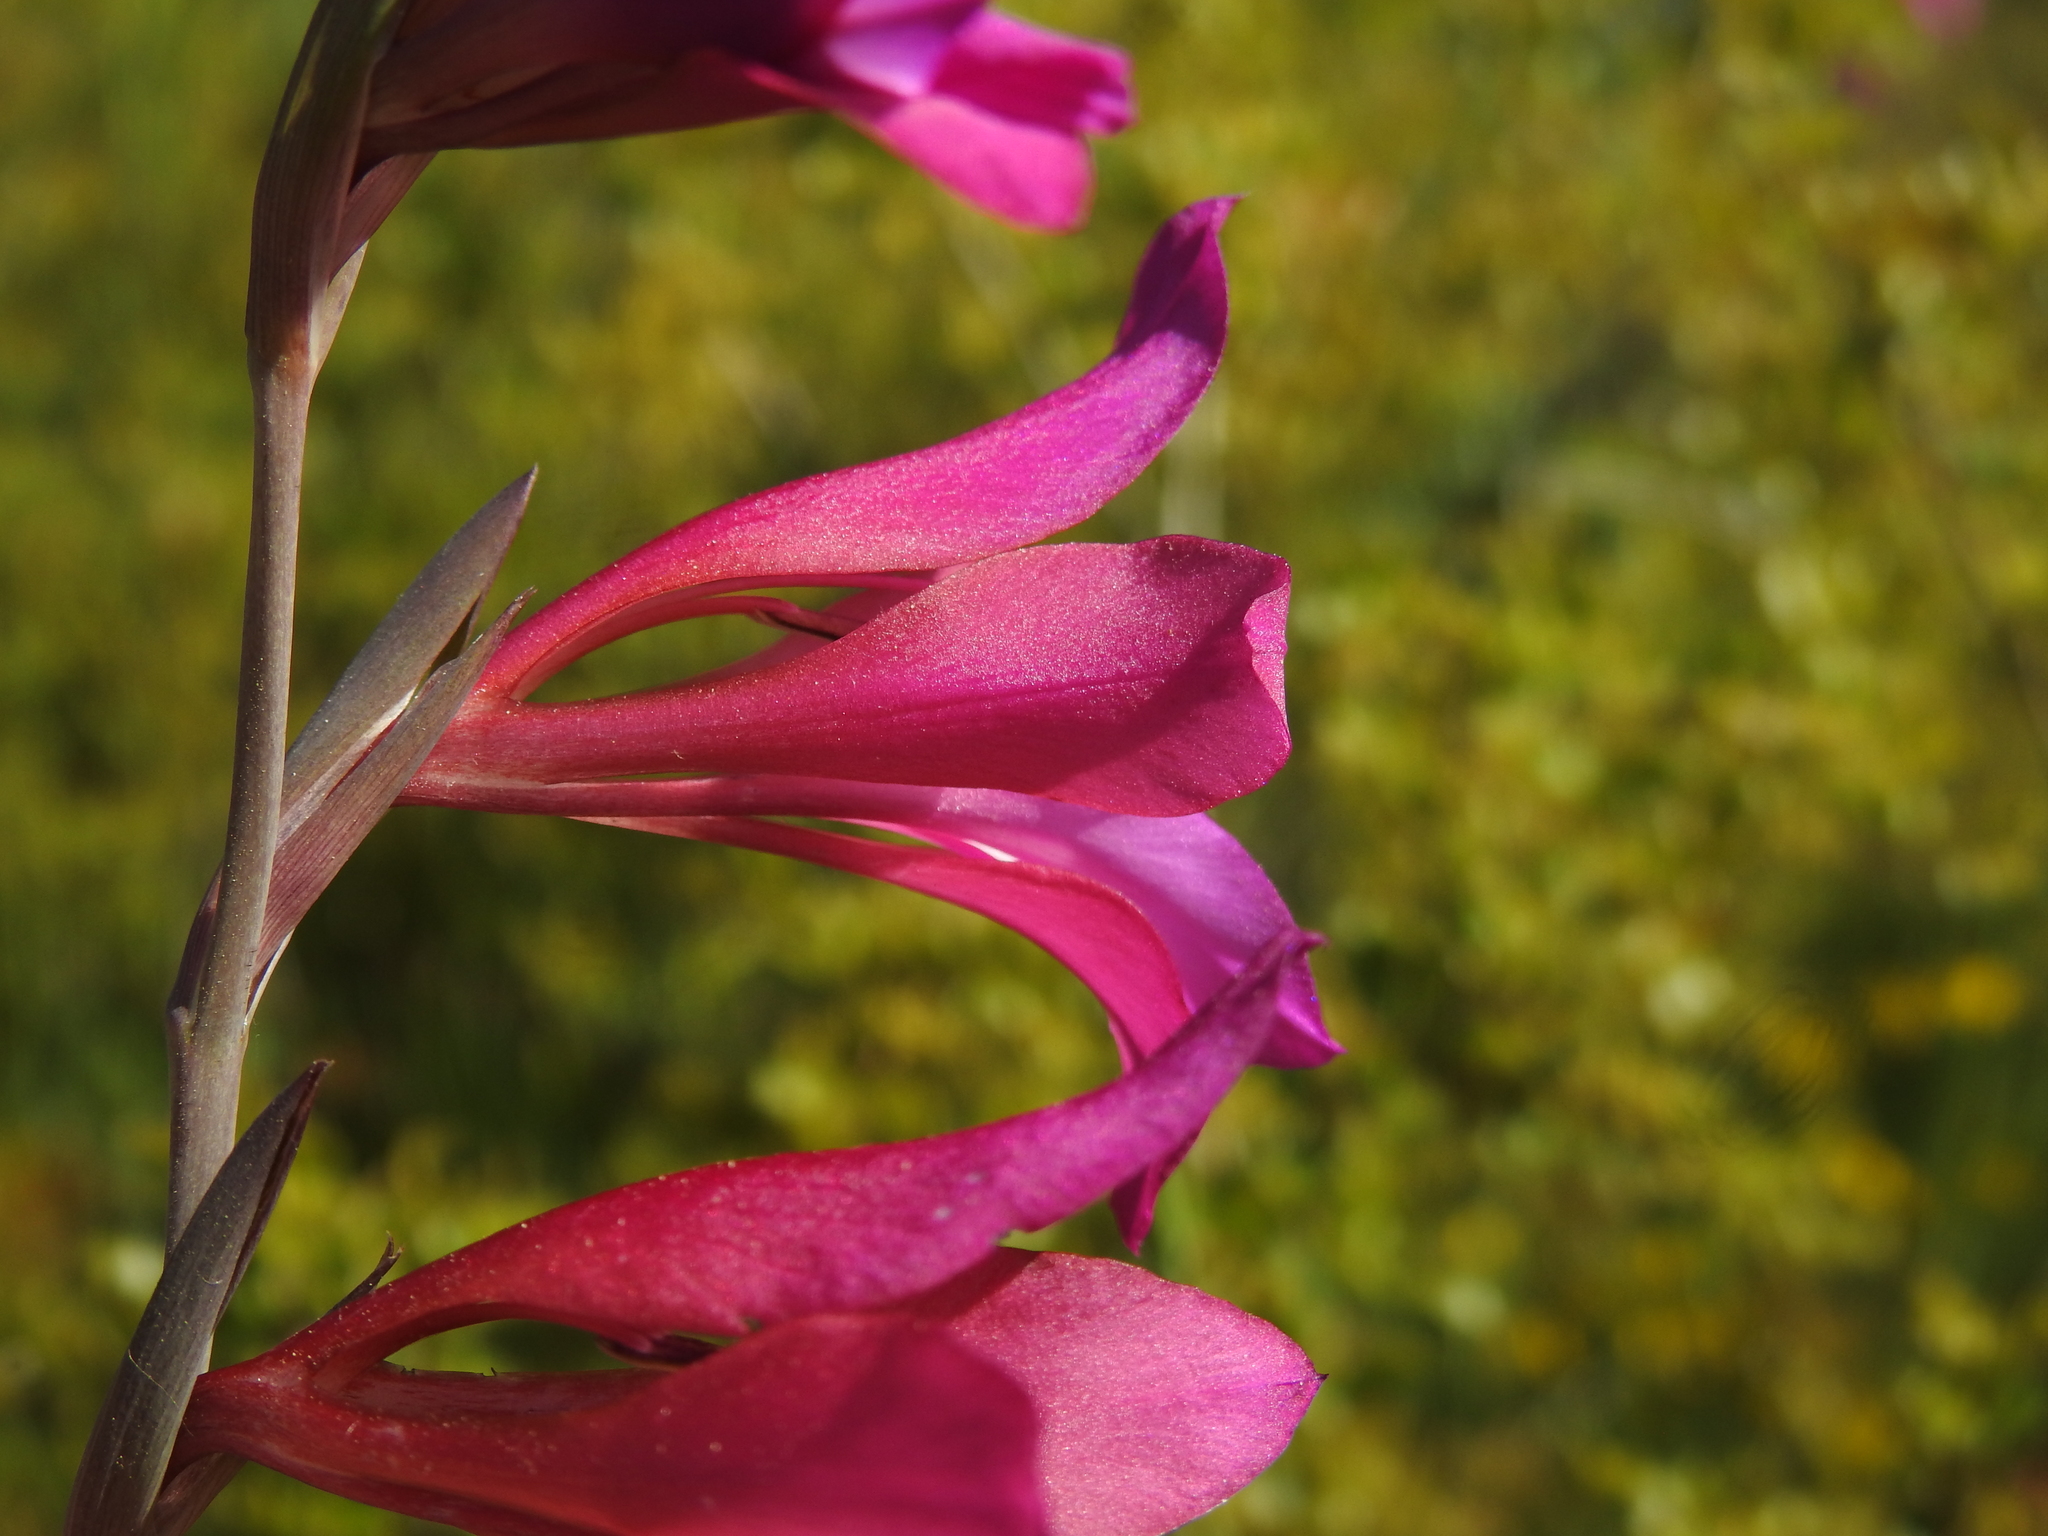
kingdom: Plantae
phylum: Tracheophyta
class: Liliopsida
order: Asparagales
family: Iridaceae
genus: Gladiolus
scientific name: Gladiolus dubius
